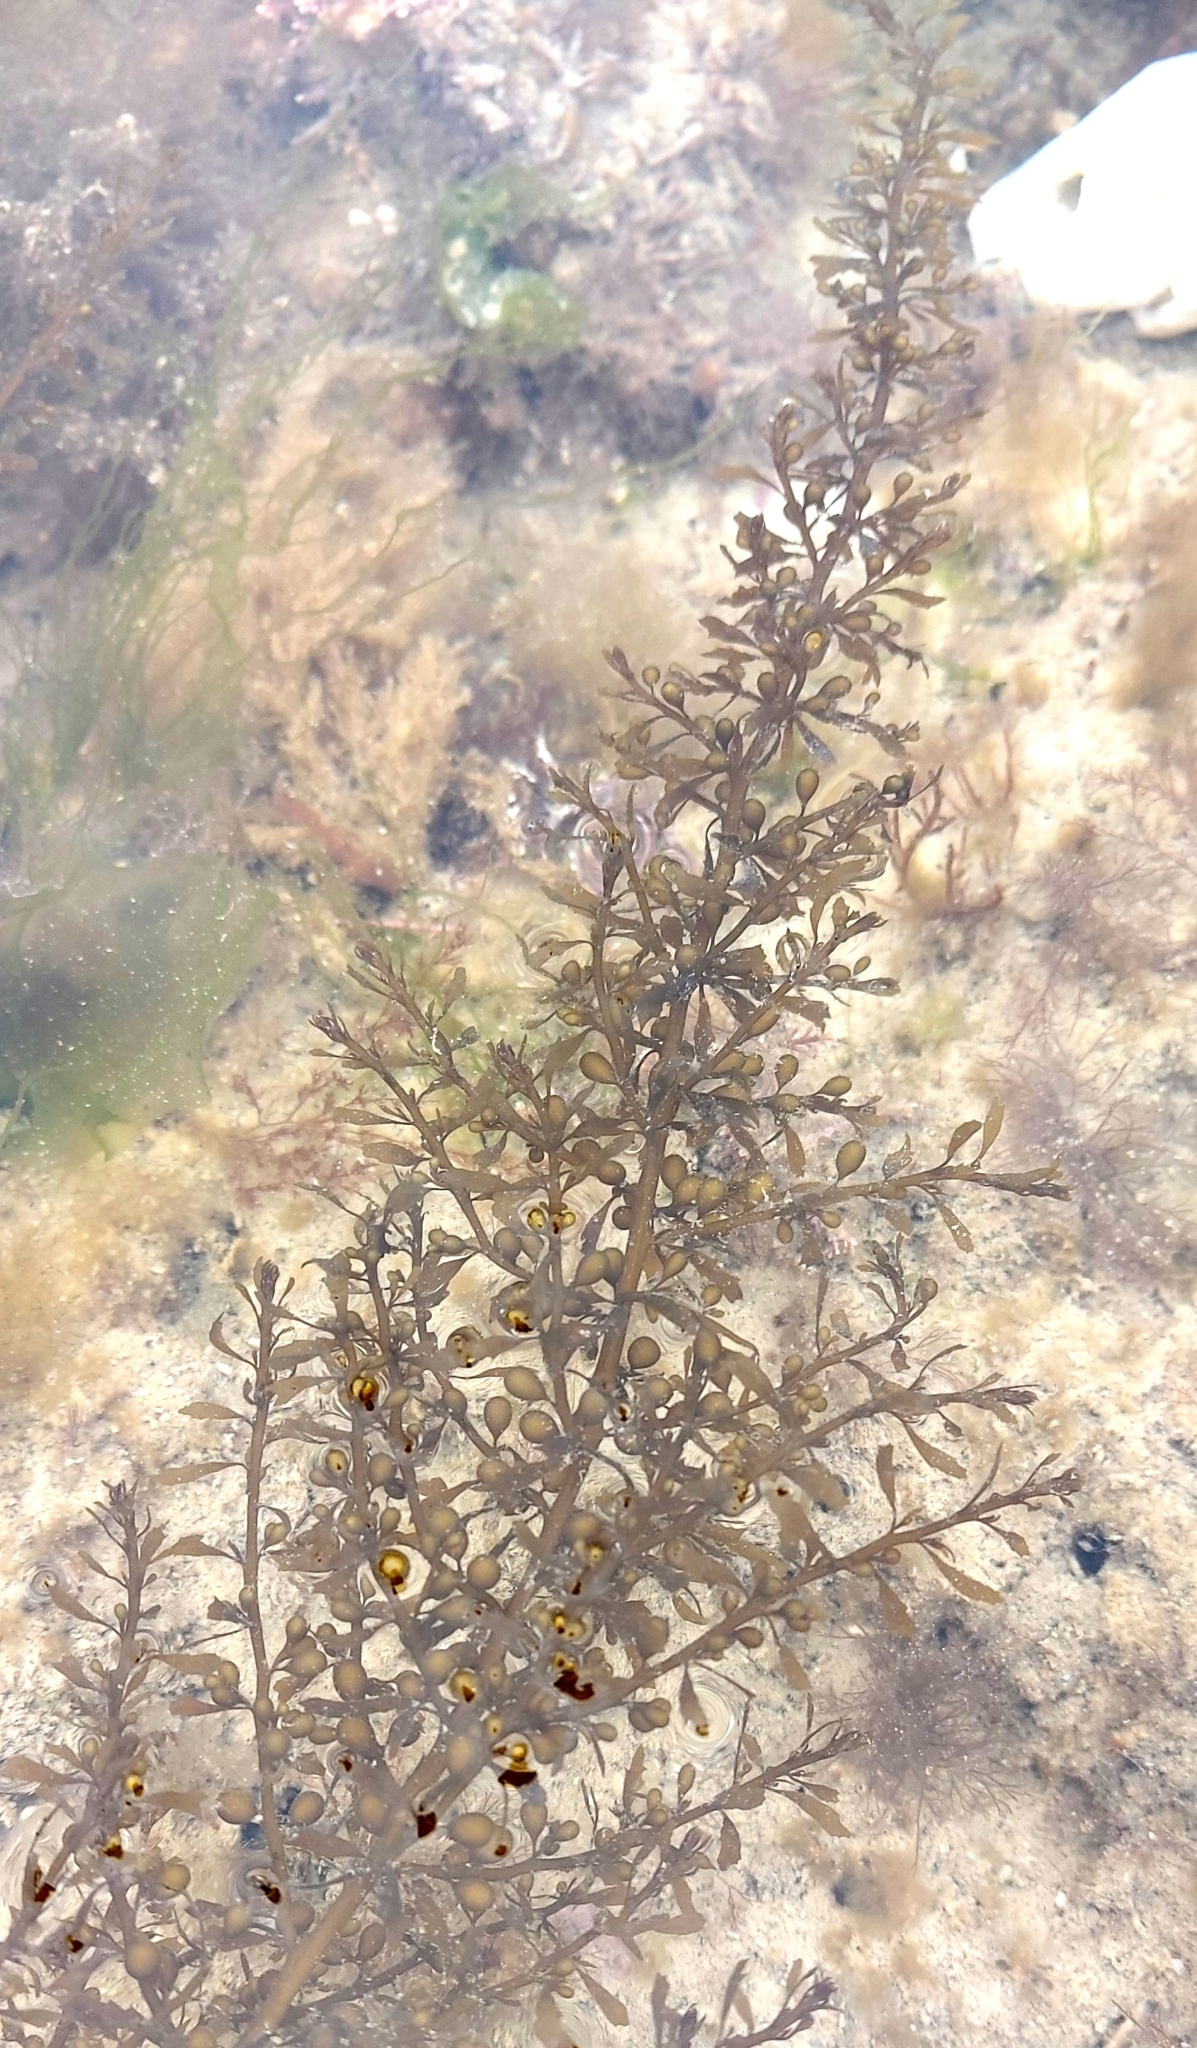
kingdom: Chromista
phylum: Ochrophyta
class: Phaeophyceae
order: Fucales
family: Sargassaceae
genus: Sargassum
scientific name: Sargassum muticum
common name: Japweed
